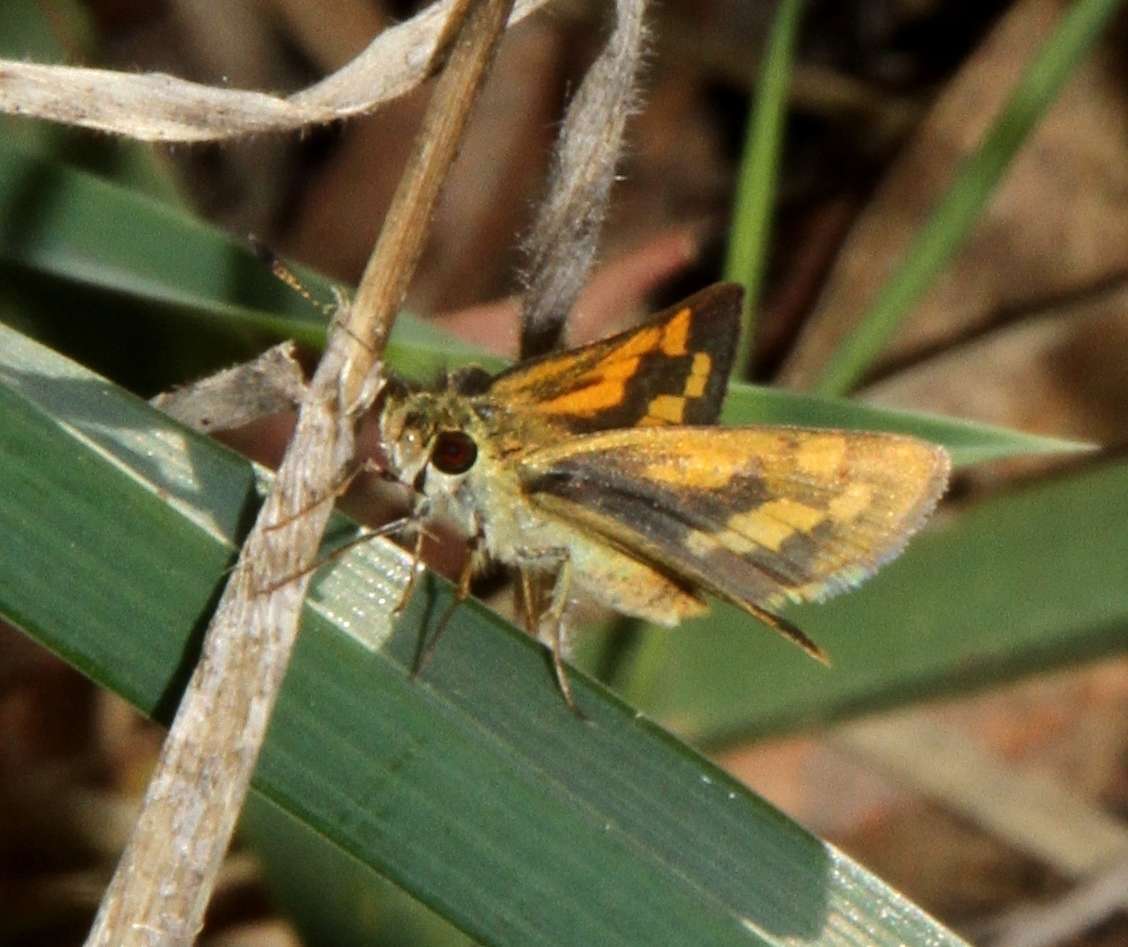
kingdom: Animalia
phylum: Arthropoda
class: Insecta
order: Lepidoptera
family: Hesperiidae
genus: Ocybadistes
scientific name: Ocybadistes walkeri
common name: Yellow-banded dart
